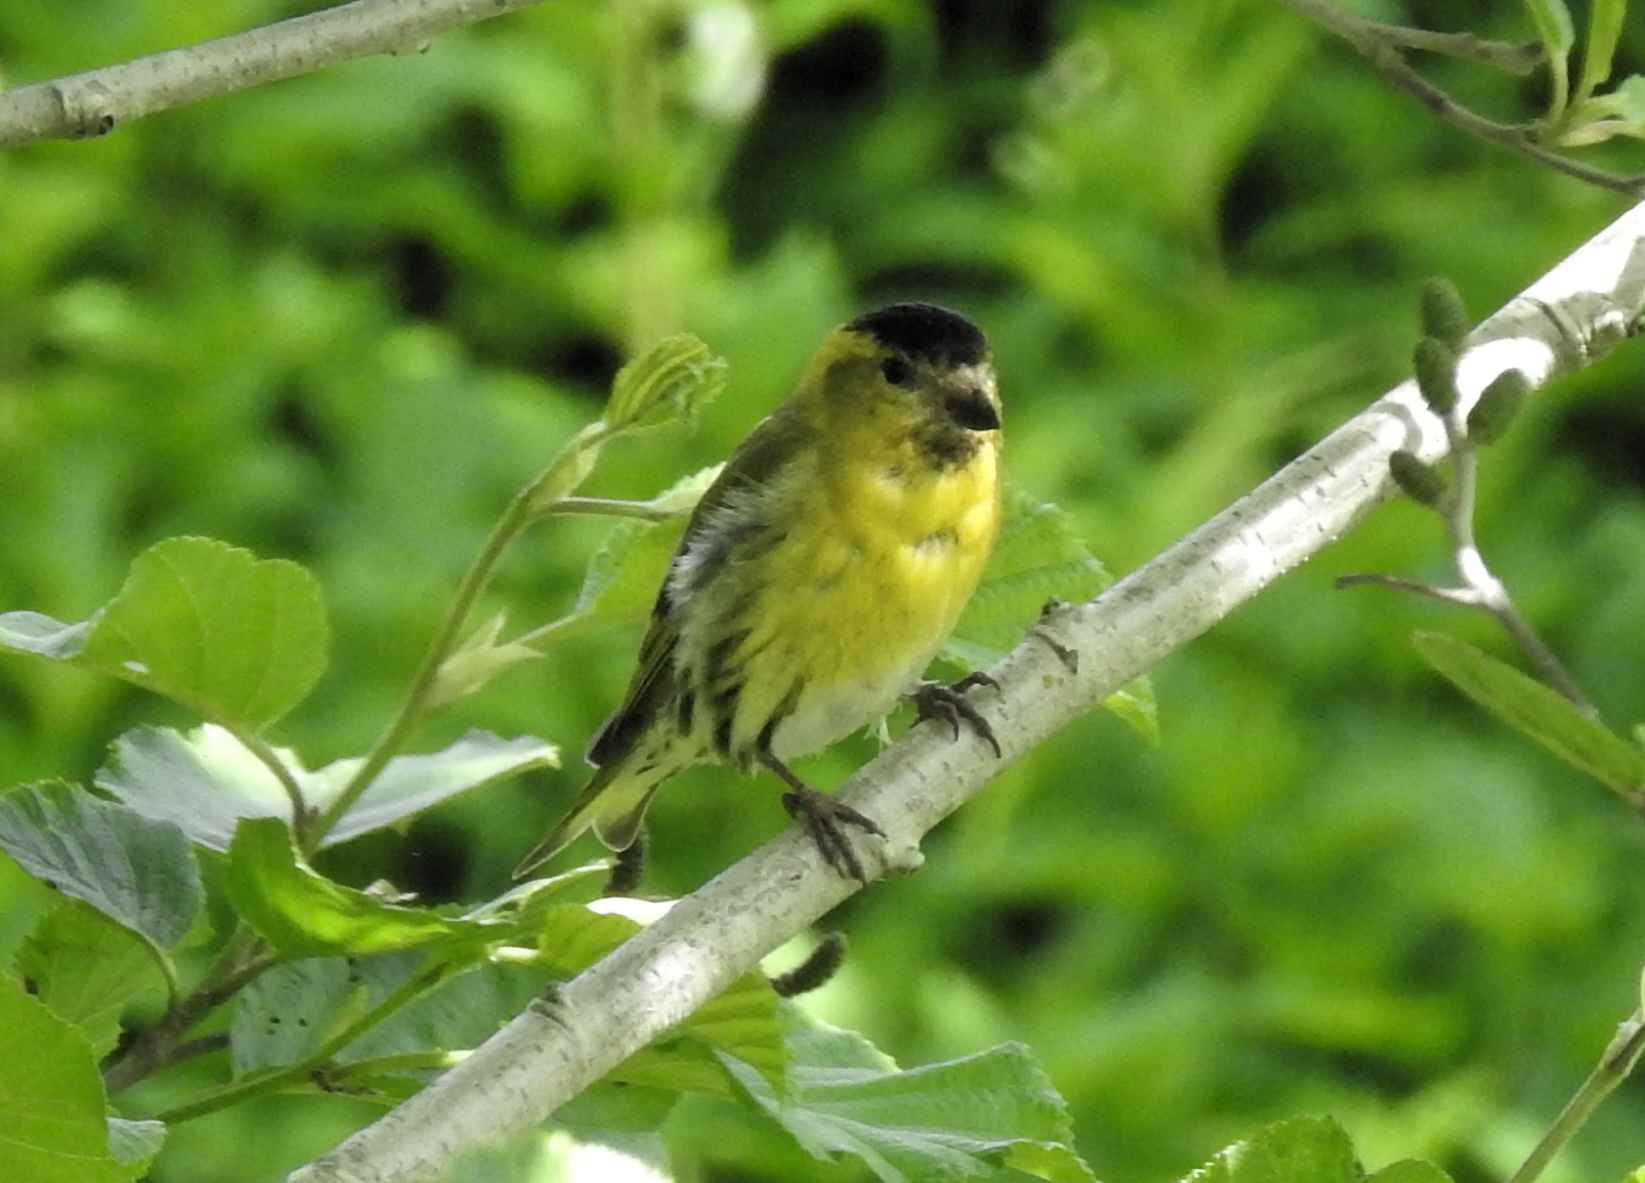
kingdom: Animalia
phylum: Chordata
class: Aves
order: Passeriformes
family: Fringillidae
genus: Spinus
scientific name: Spinus spinus
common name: Eurasian siskin
